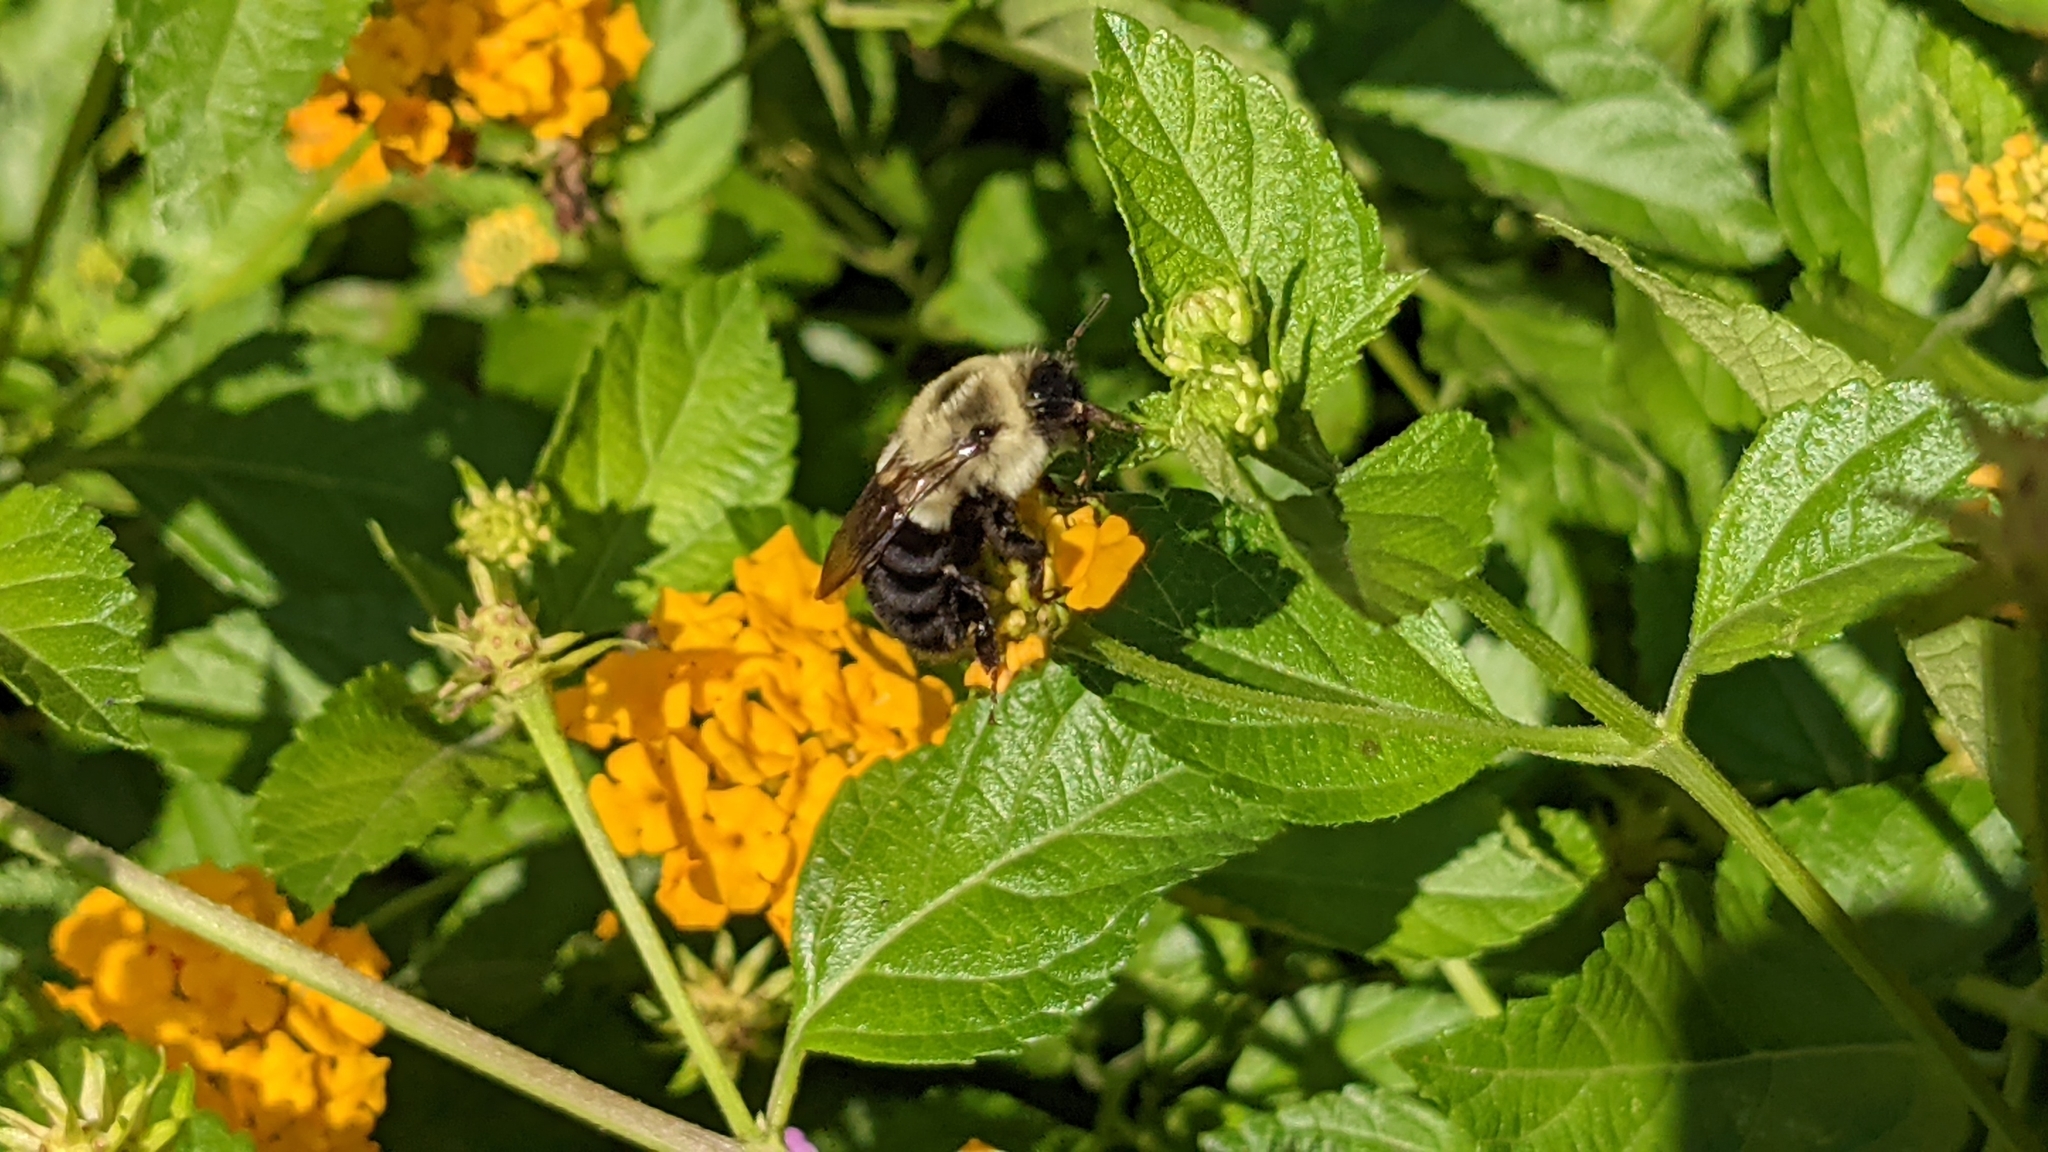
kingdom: Animalia
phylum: Arthropoda
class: Insecta
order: Hymenoptera
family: Apidae
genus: Bombus
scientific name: Bombus impatiens
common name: Common eastern bumble bee
